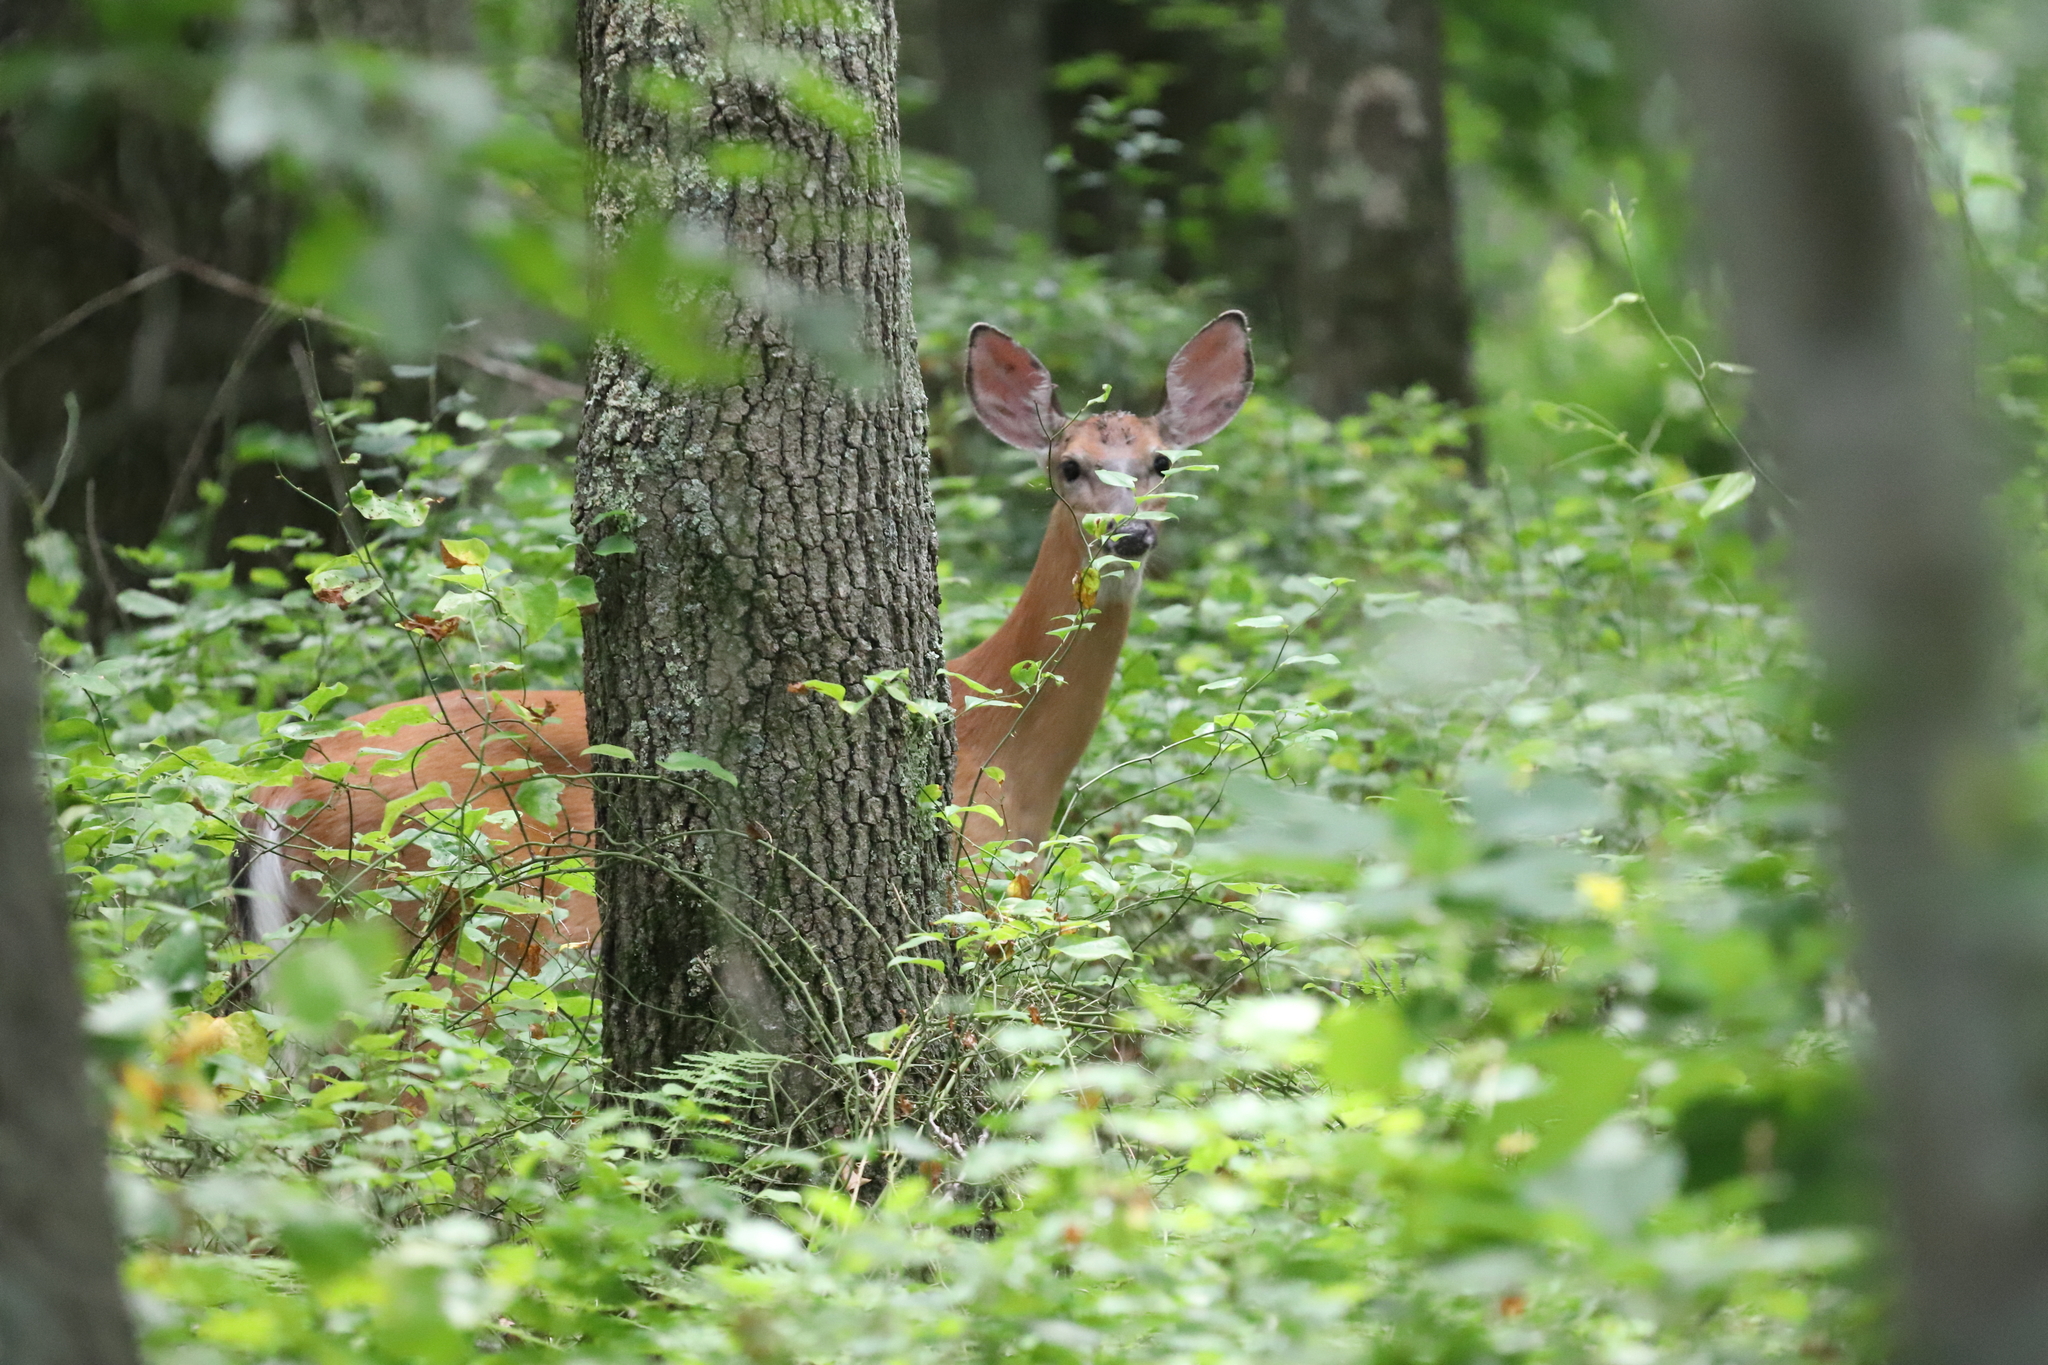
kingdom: Animalia
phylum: Chordata
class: Mammalia
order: Artiodactyla
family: Cervidae
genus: Odocoileus
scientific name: Odocoileus virginianus
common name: White-tailed deer
